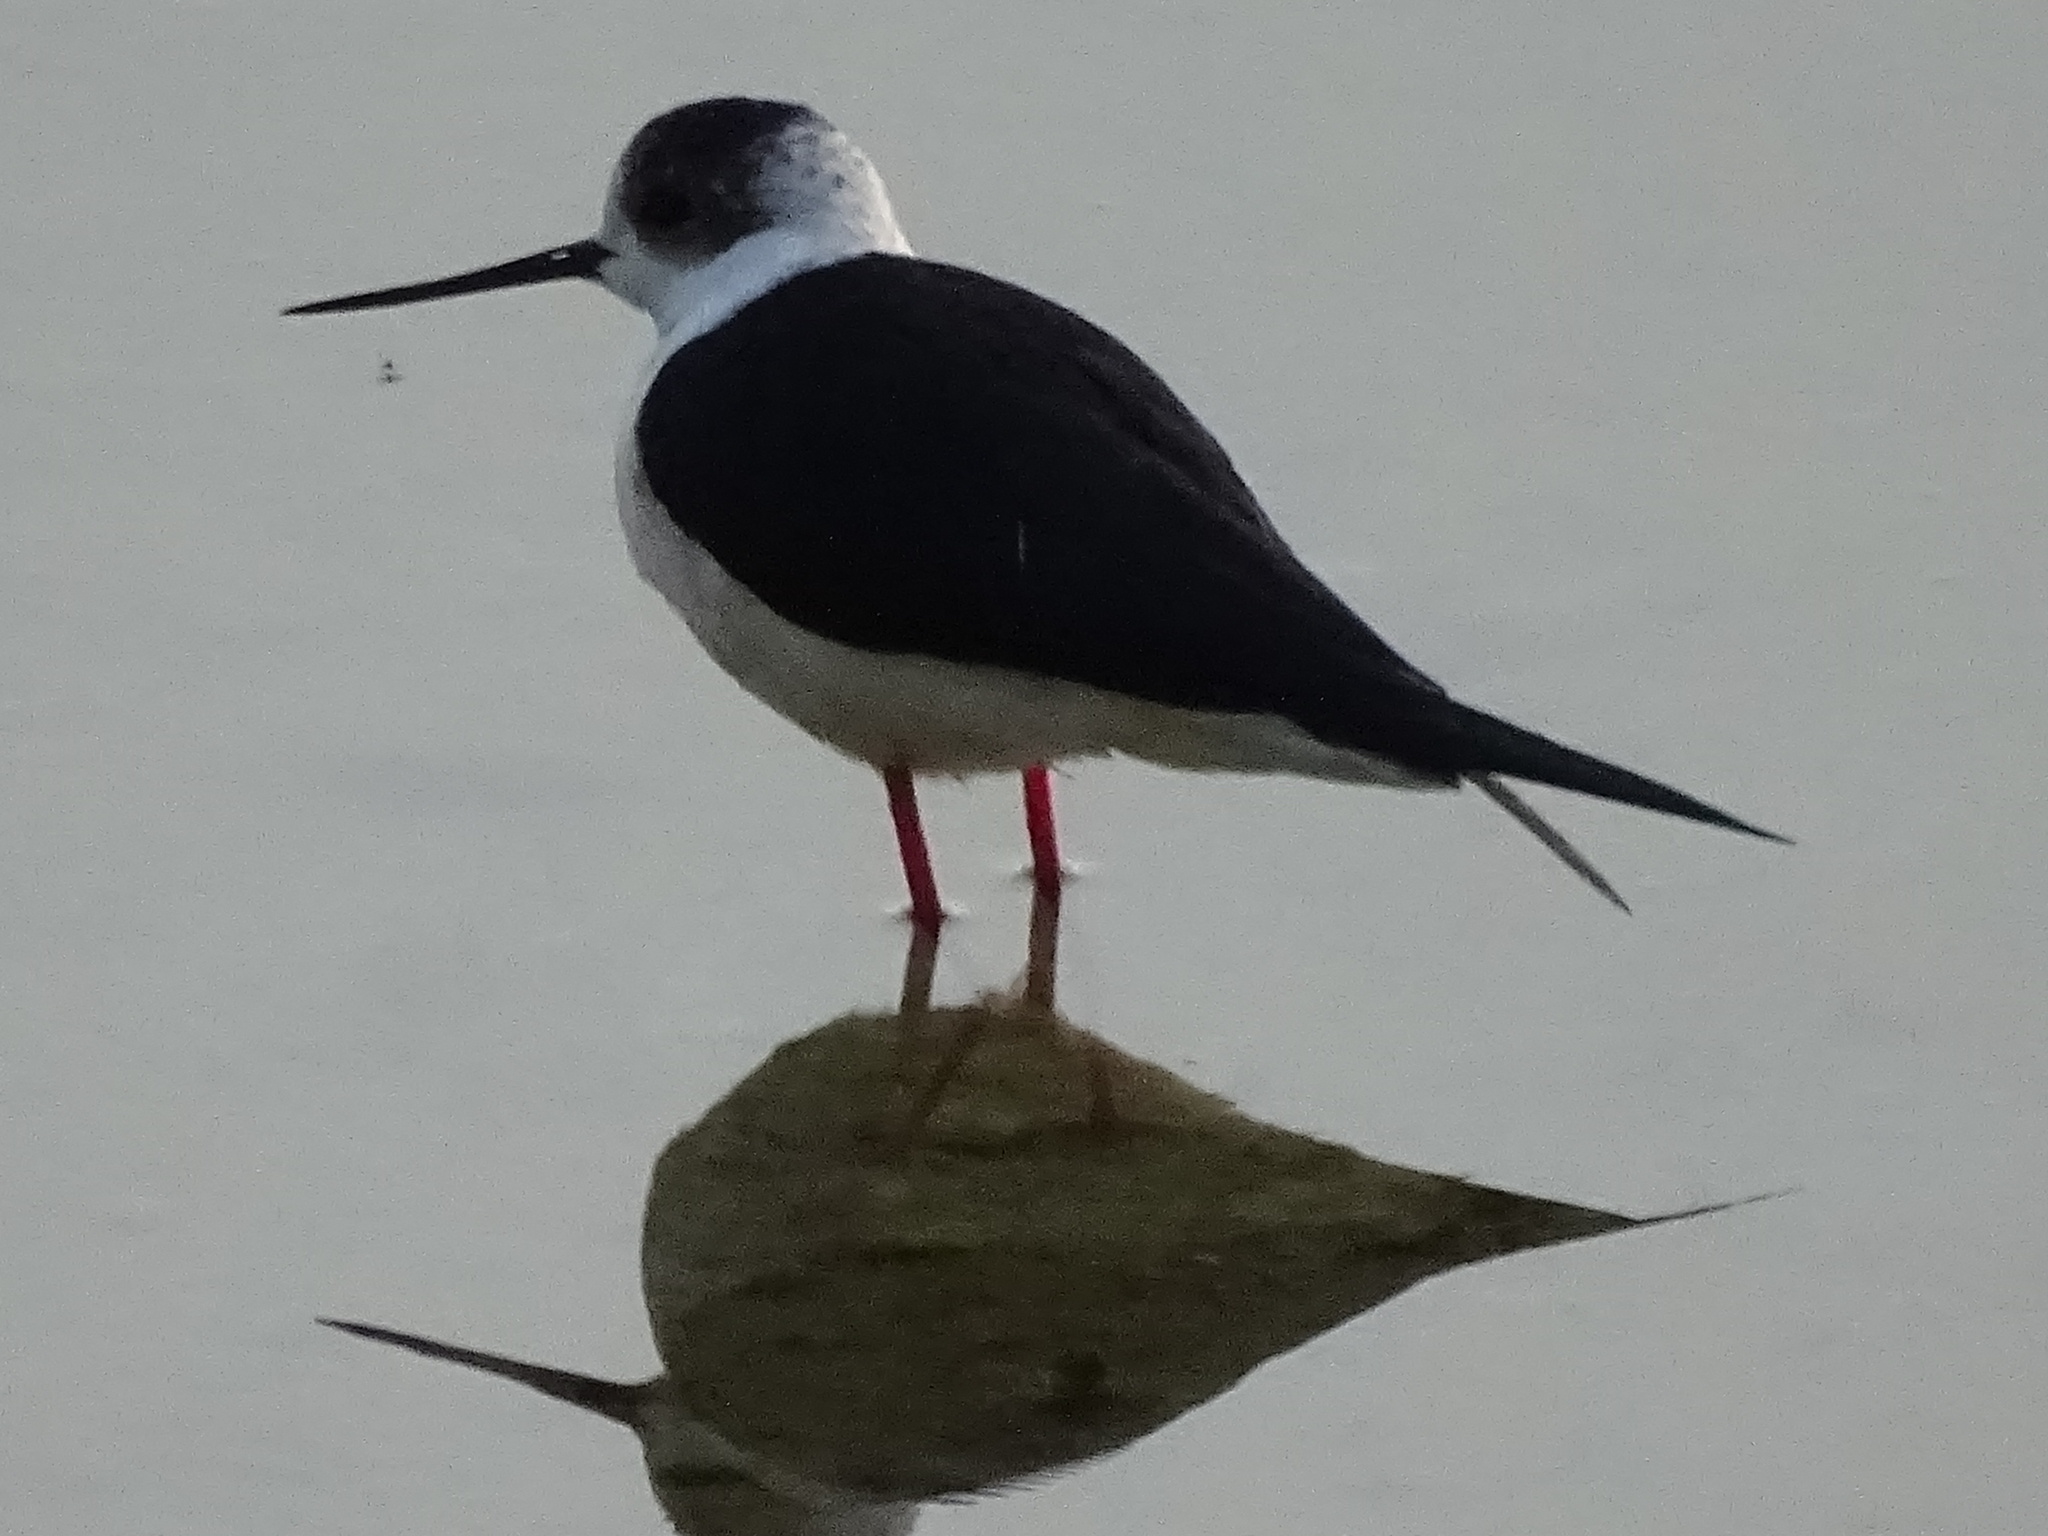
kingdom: Animalia
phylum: Chordata
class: Aves
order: Charadriiformes
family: Recurvirostridae
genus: Himantopus
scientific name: Himantopus himantopus
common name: Black-winged stilt
